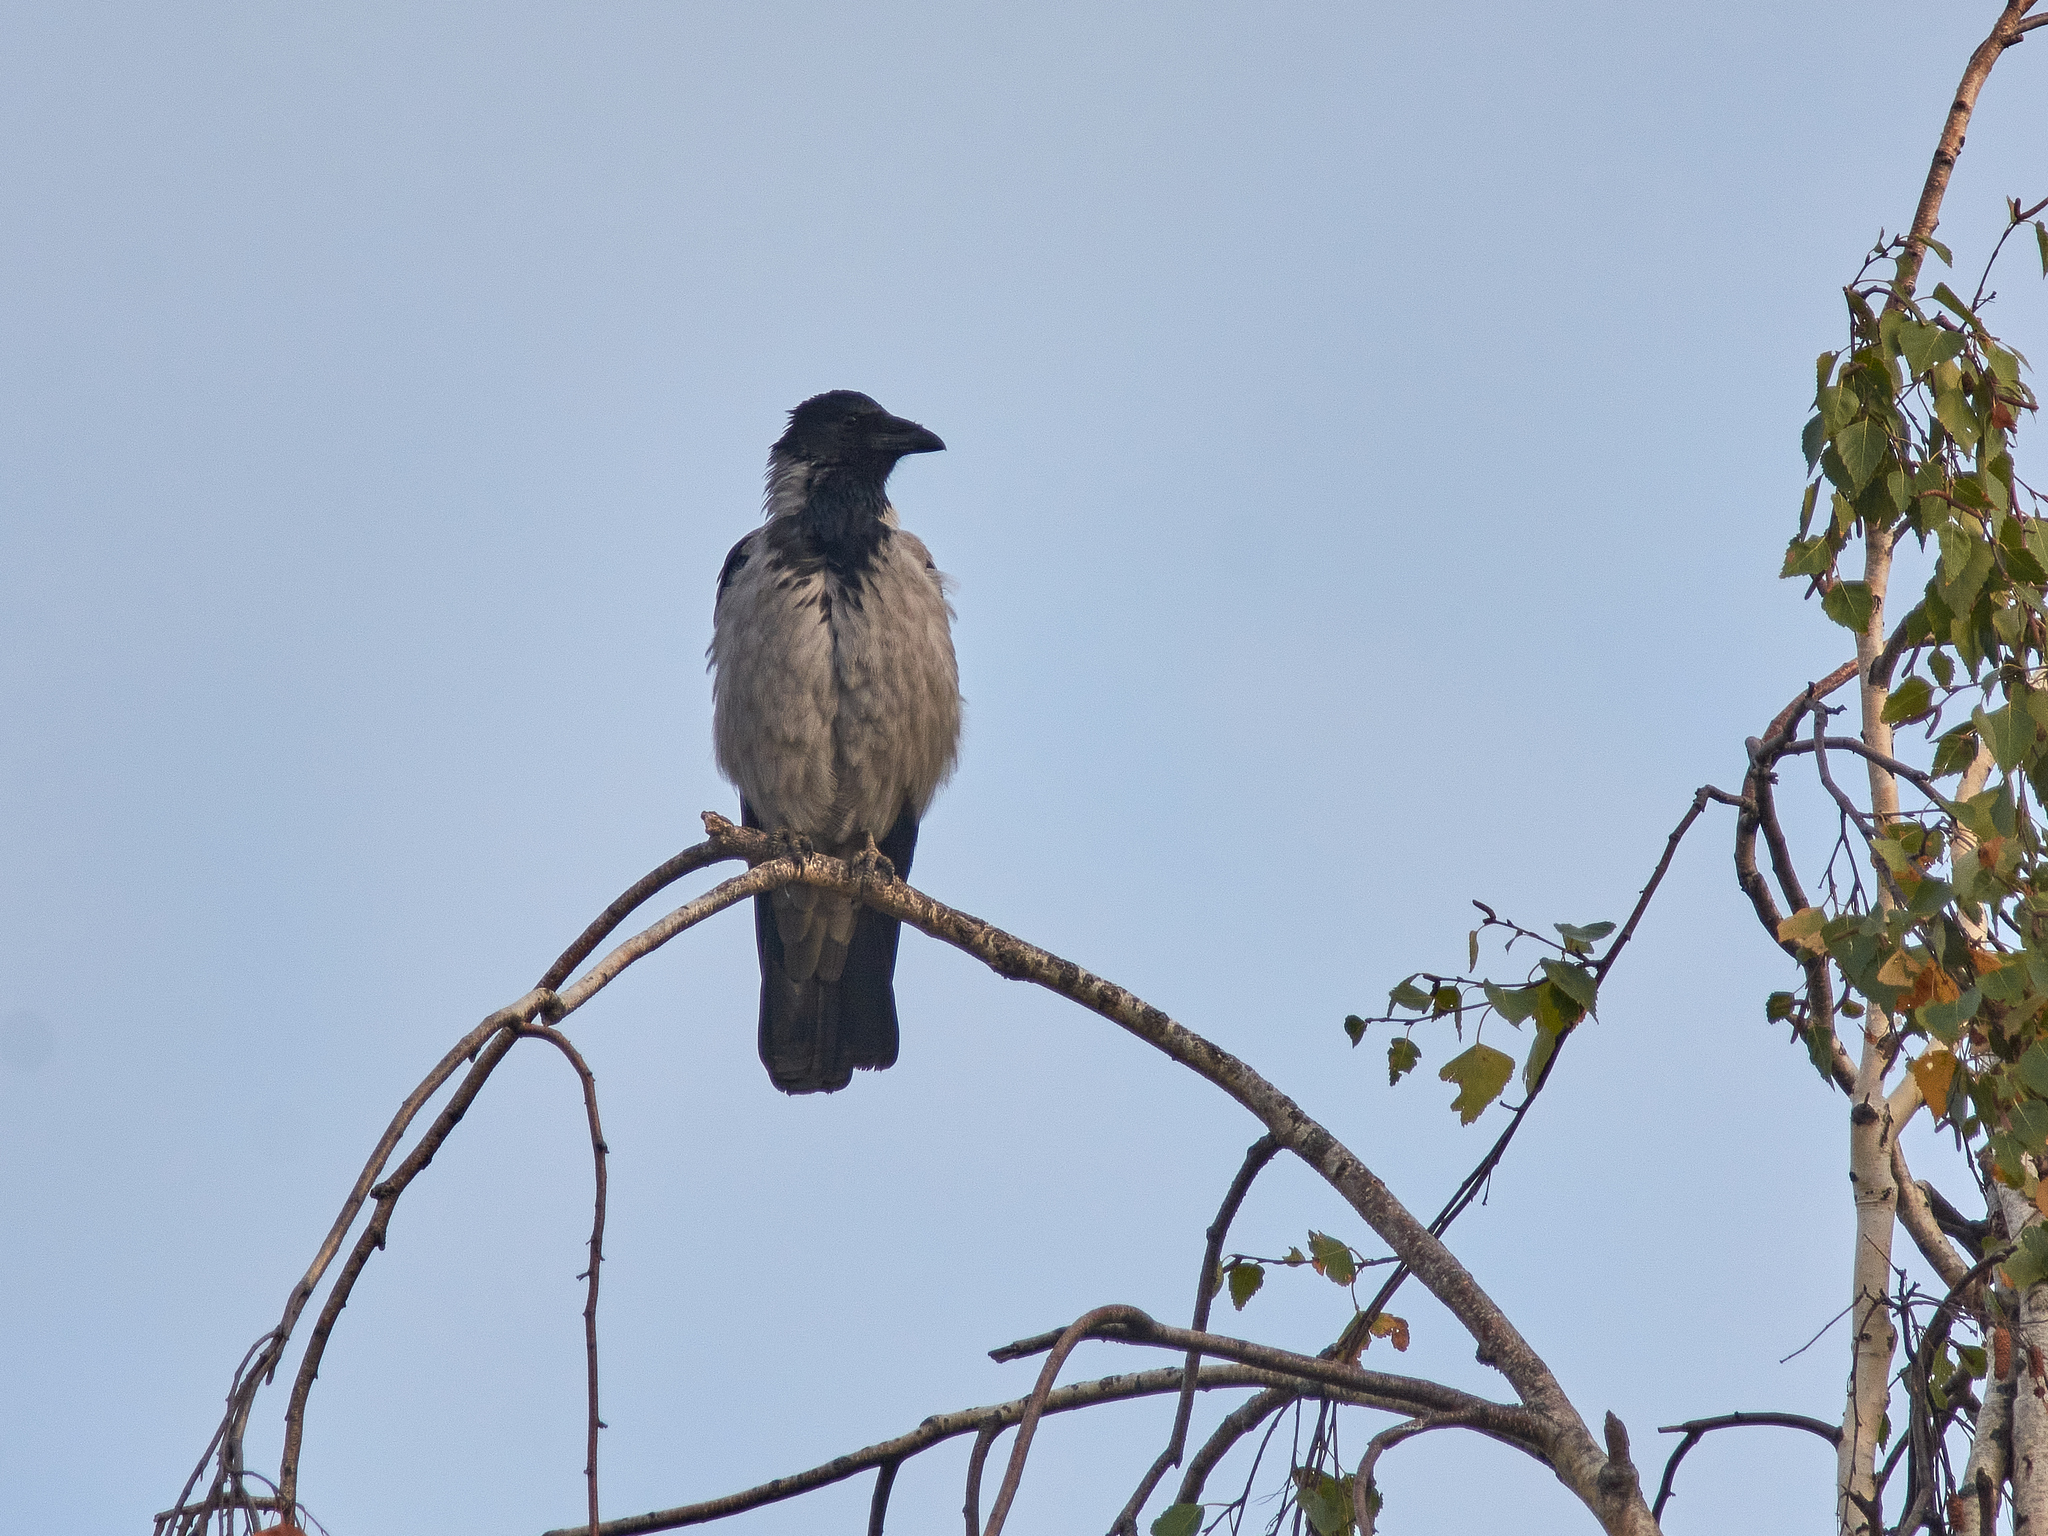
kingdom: Animalia
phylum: Chordata
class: Aves
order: Passeriformes
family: Corvidae
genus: Corvus
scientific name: Corvus cornix
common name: Hooded crow
